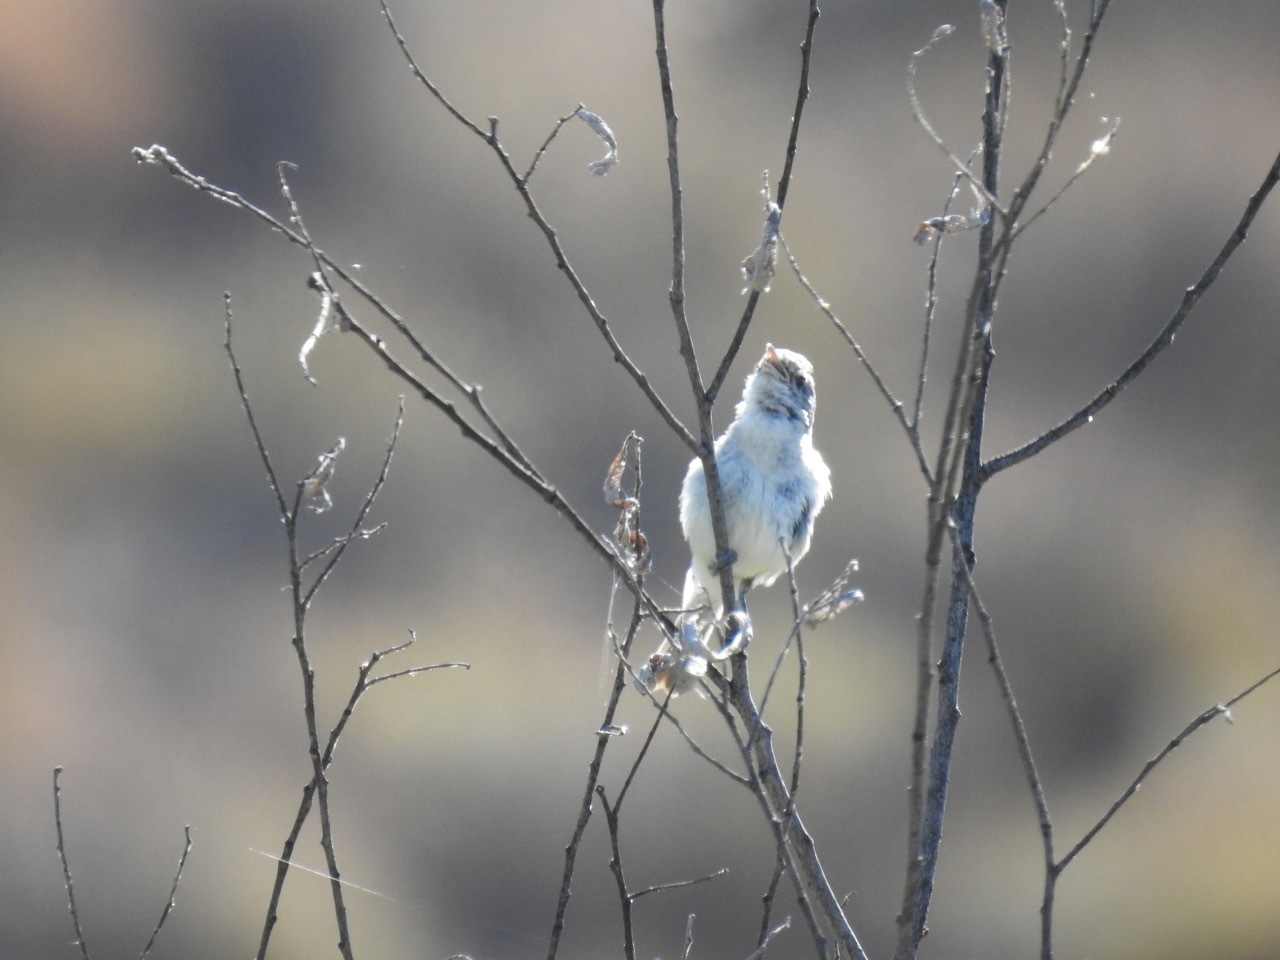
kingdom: Animalia
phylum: Chordata
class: Aves
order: Passeriformes
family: Vireonidae
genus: Vireo
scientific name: Vireo bellii
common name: Bell's vireo
